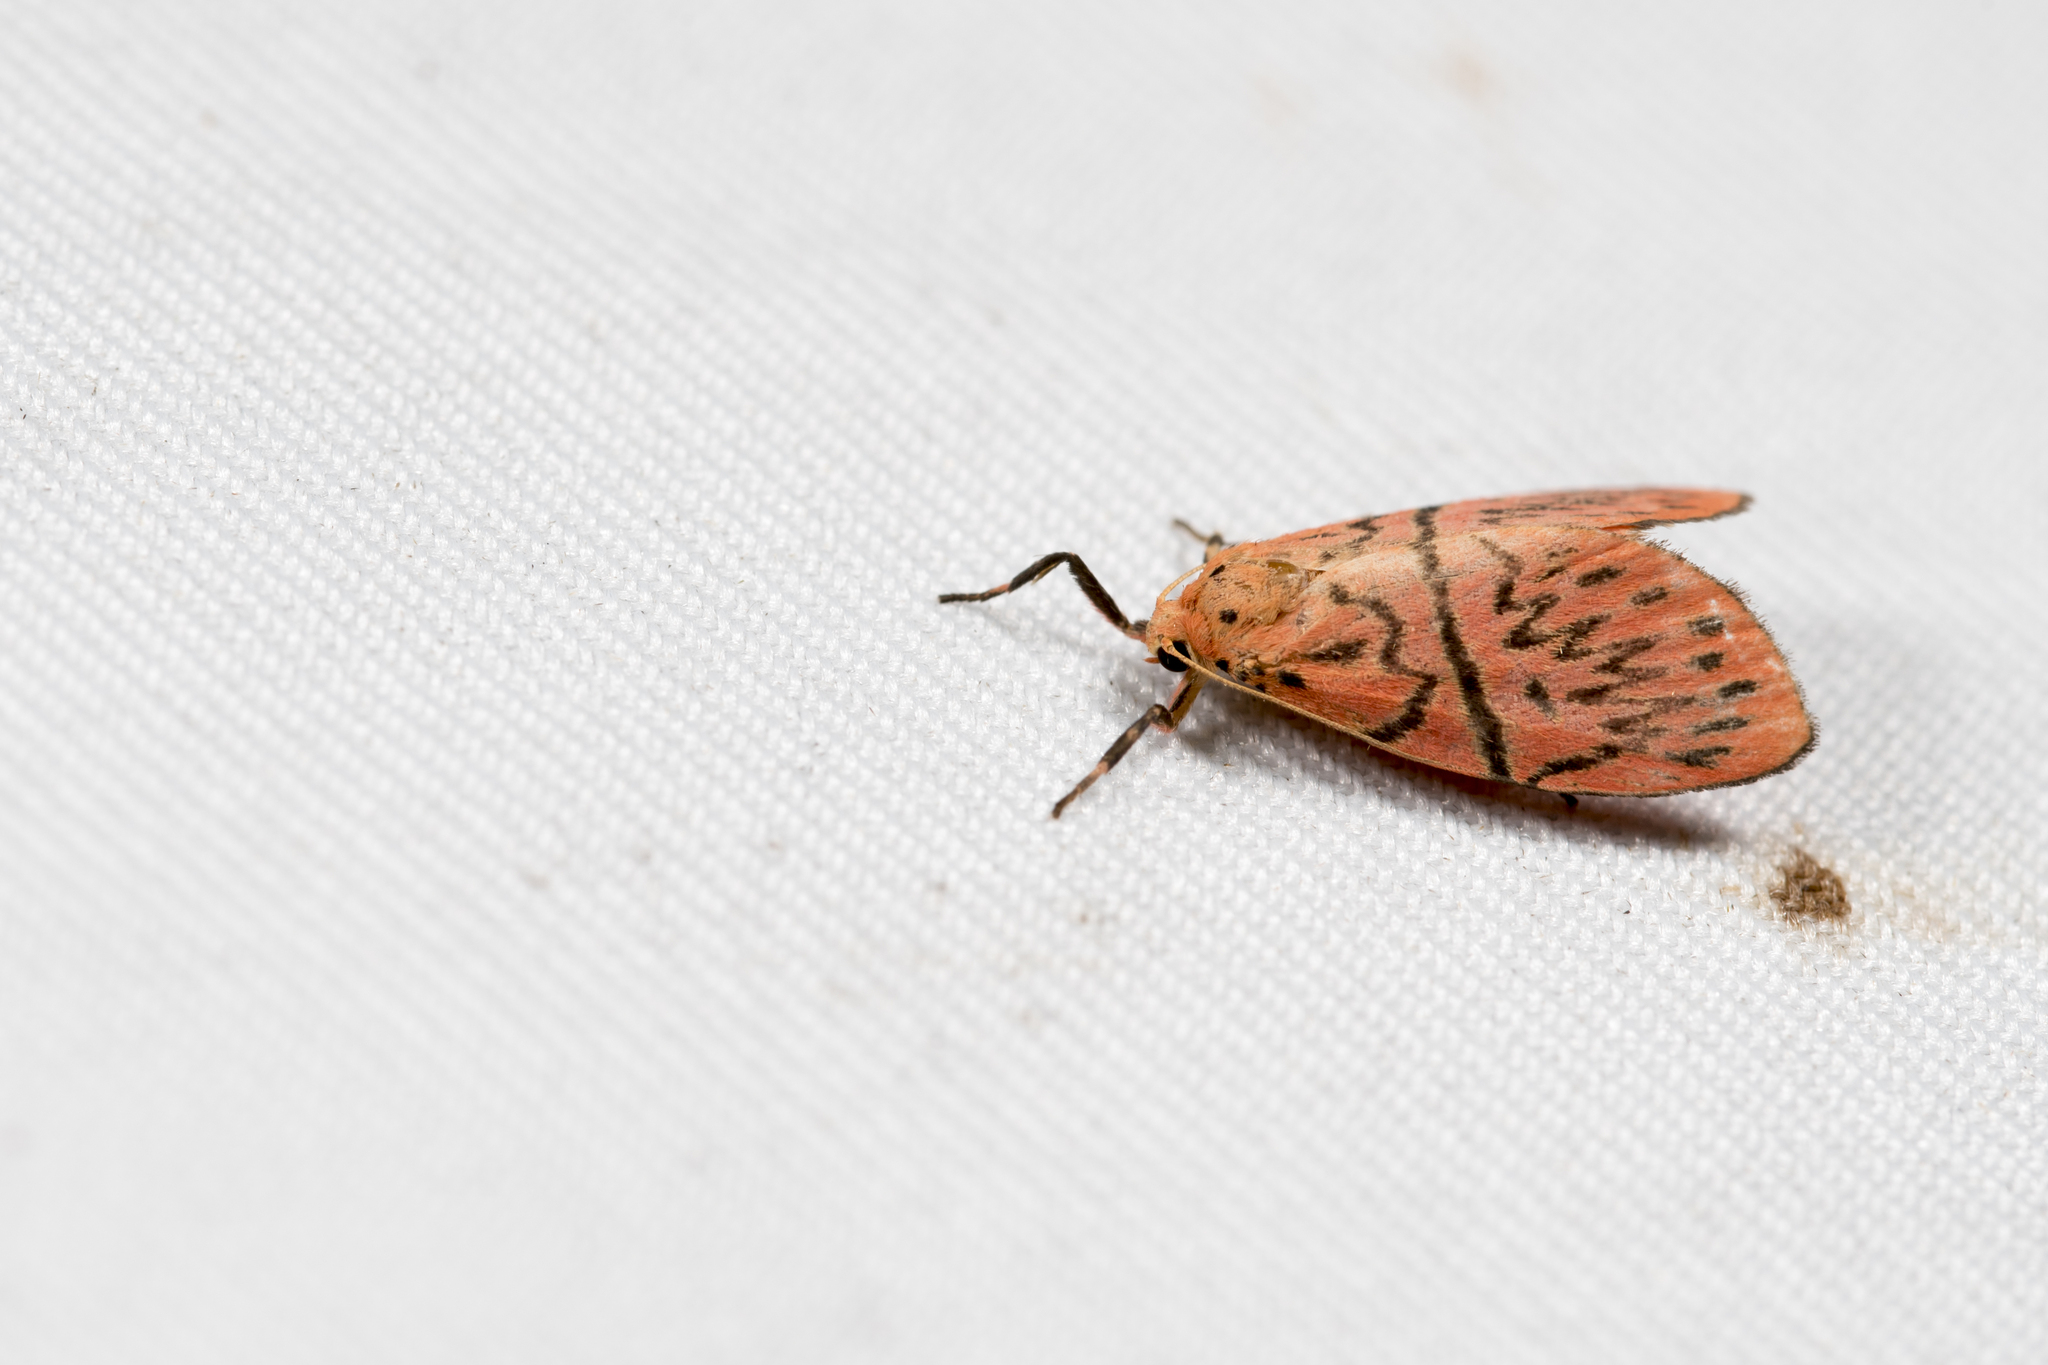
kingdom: Animalia
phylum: Arthropoda
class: Insecta
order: Lepidoptera
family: Erebidae
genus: Sesapa
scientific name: Sesapa honbaensis
